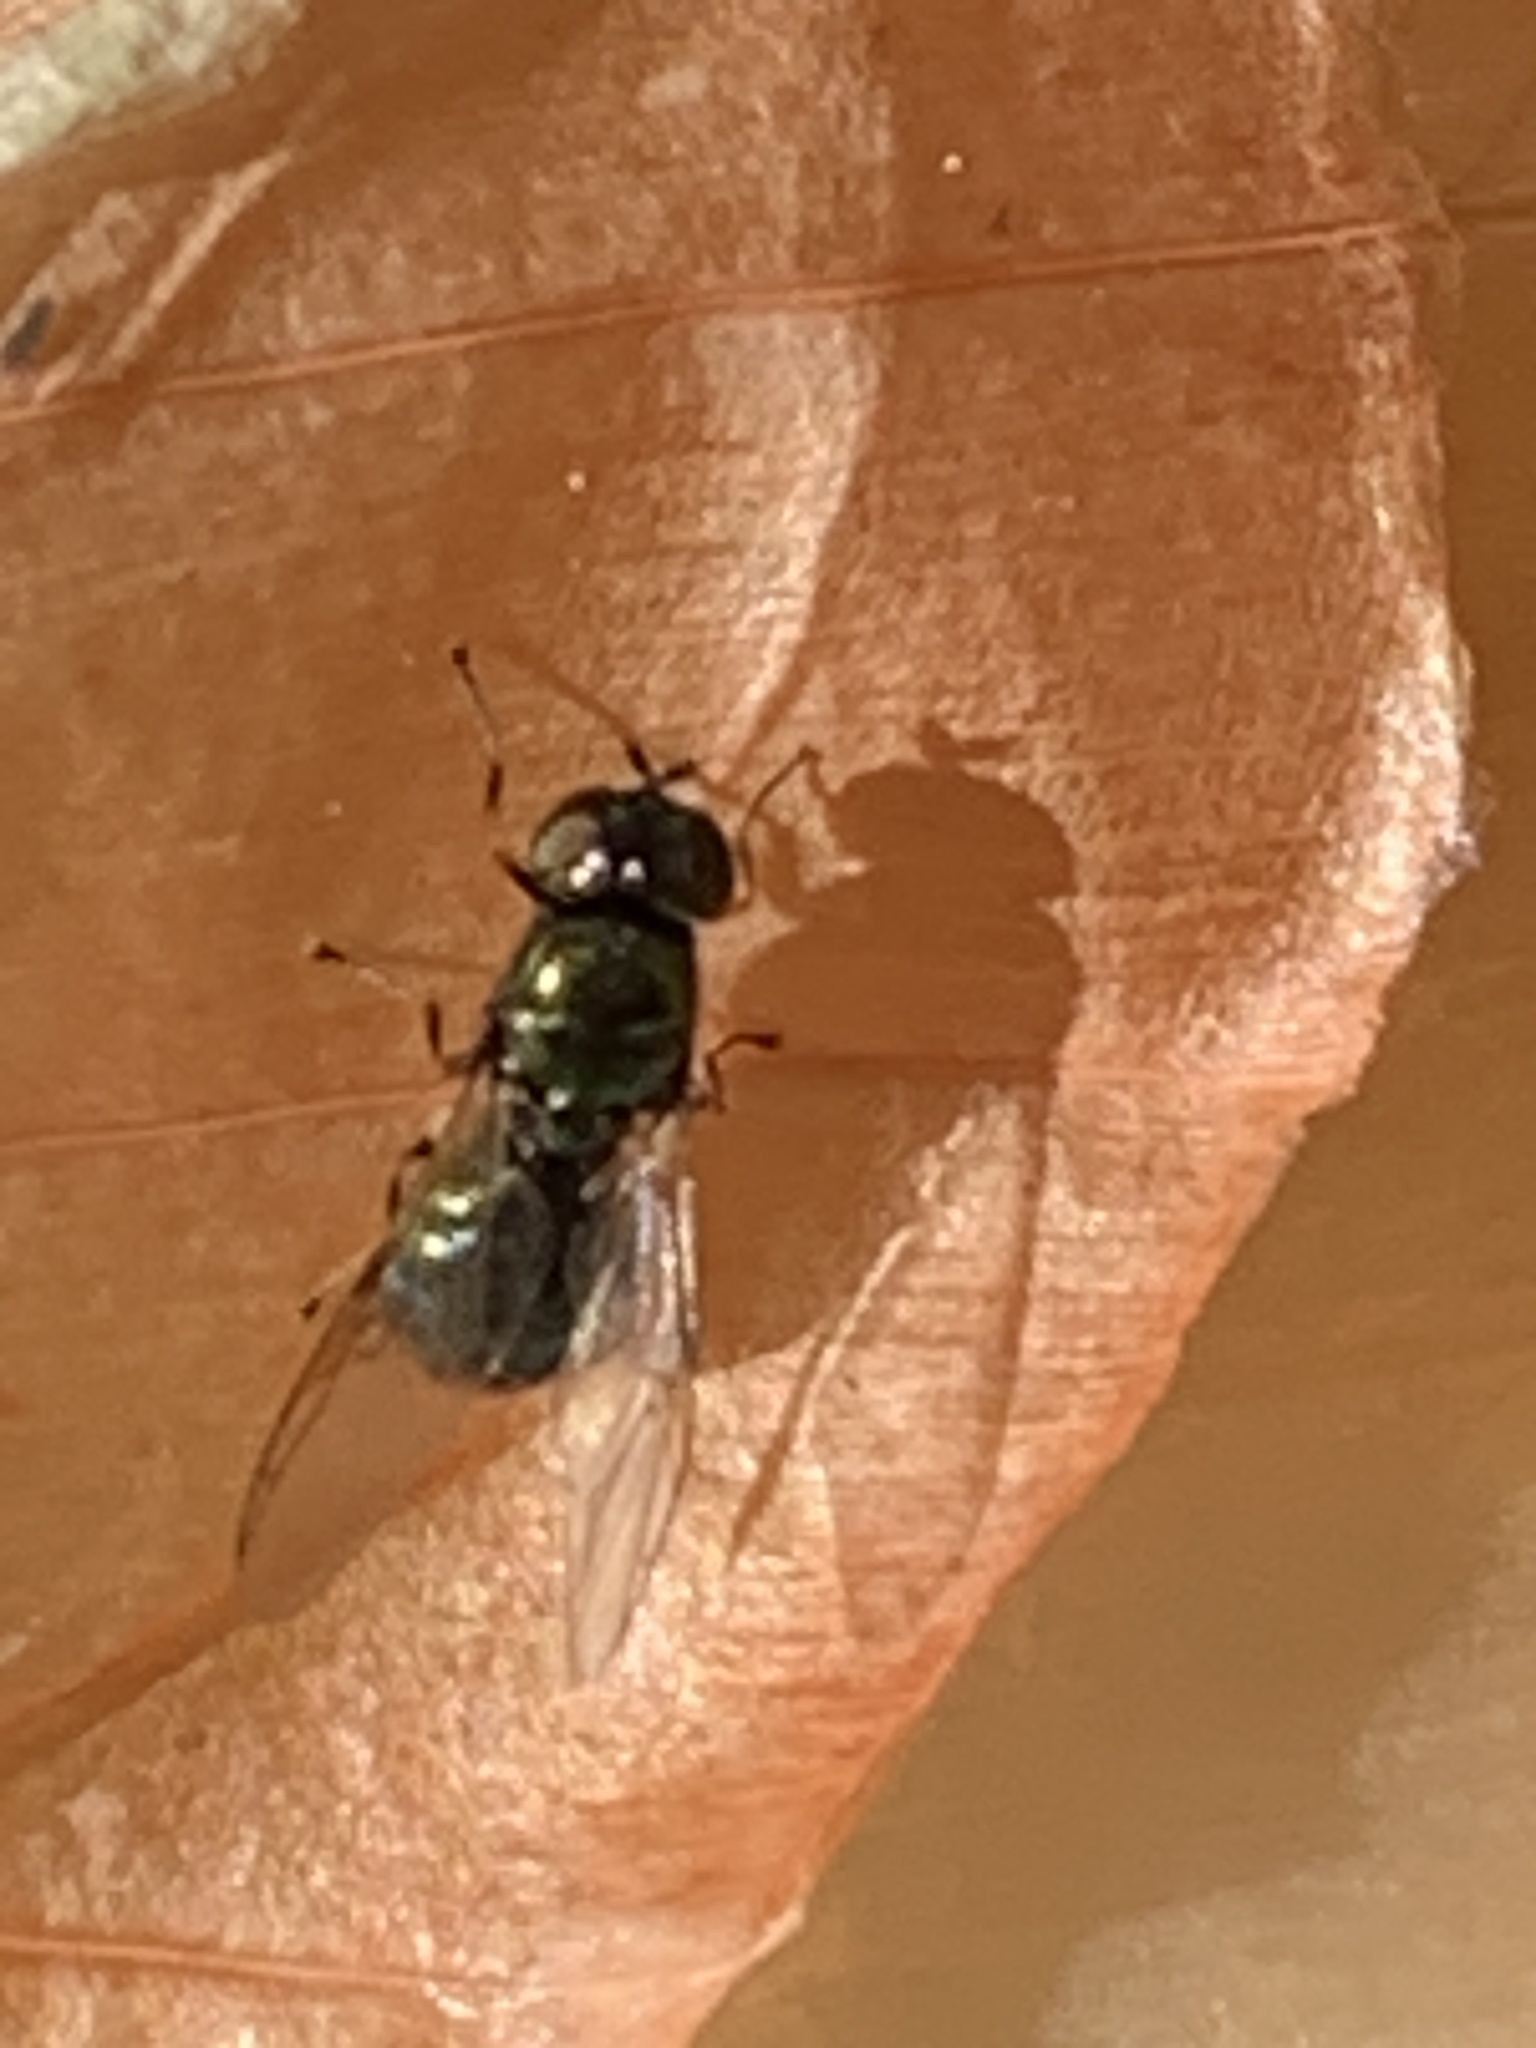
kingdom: Animalia
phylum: Arthropoda
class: Insecta
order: Diptera
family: Stratiomyidae
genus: Microchrysa
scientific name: Microchrysa polita
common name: Black-horned gem
